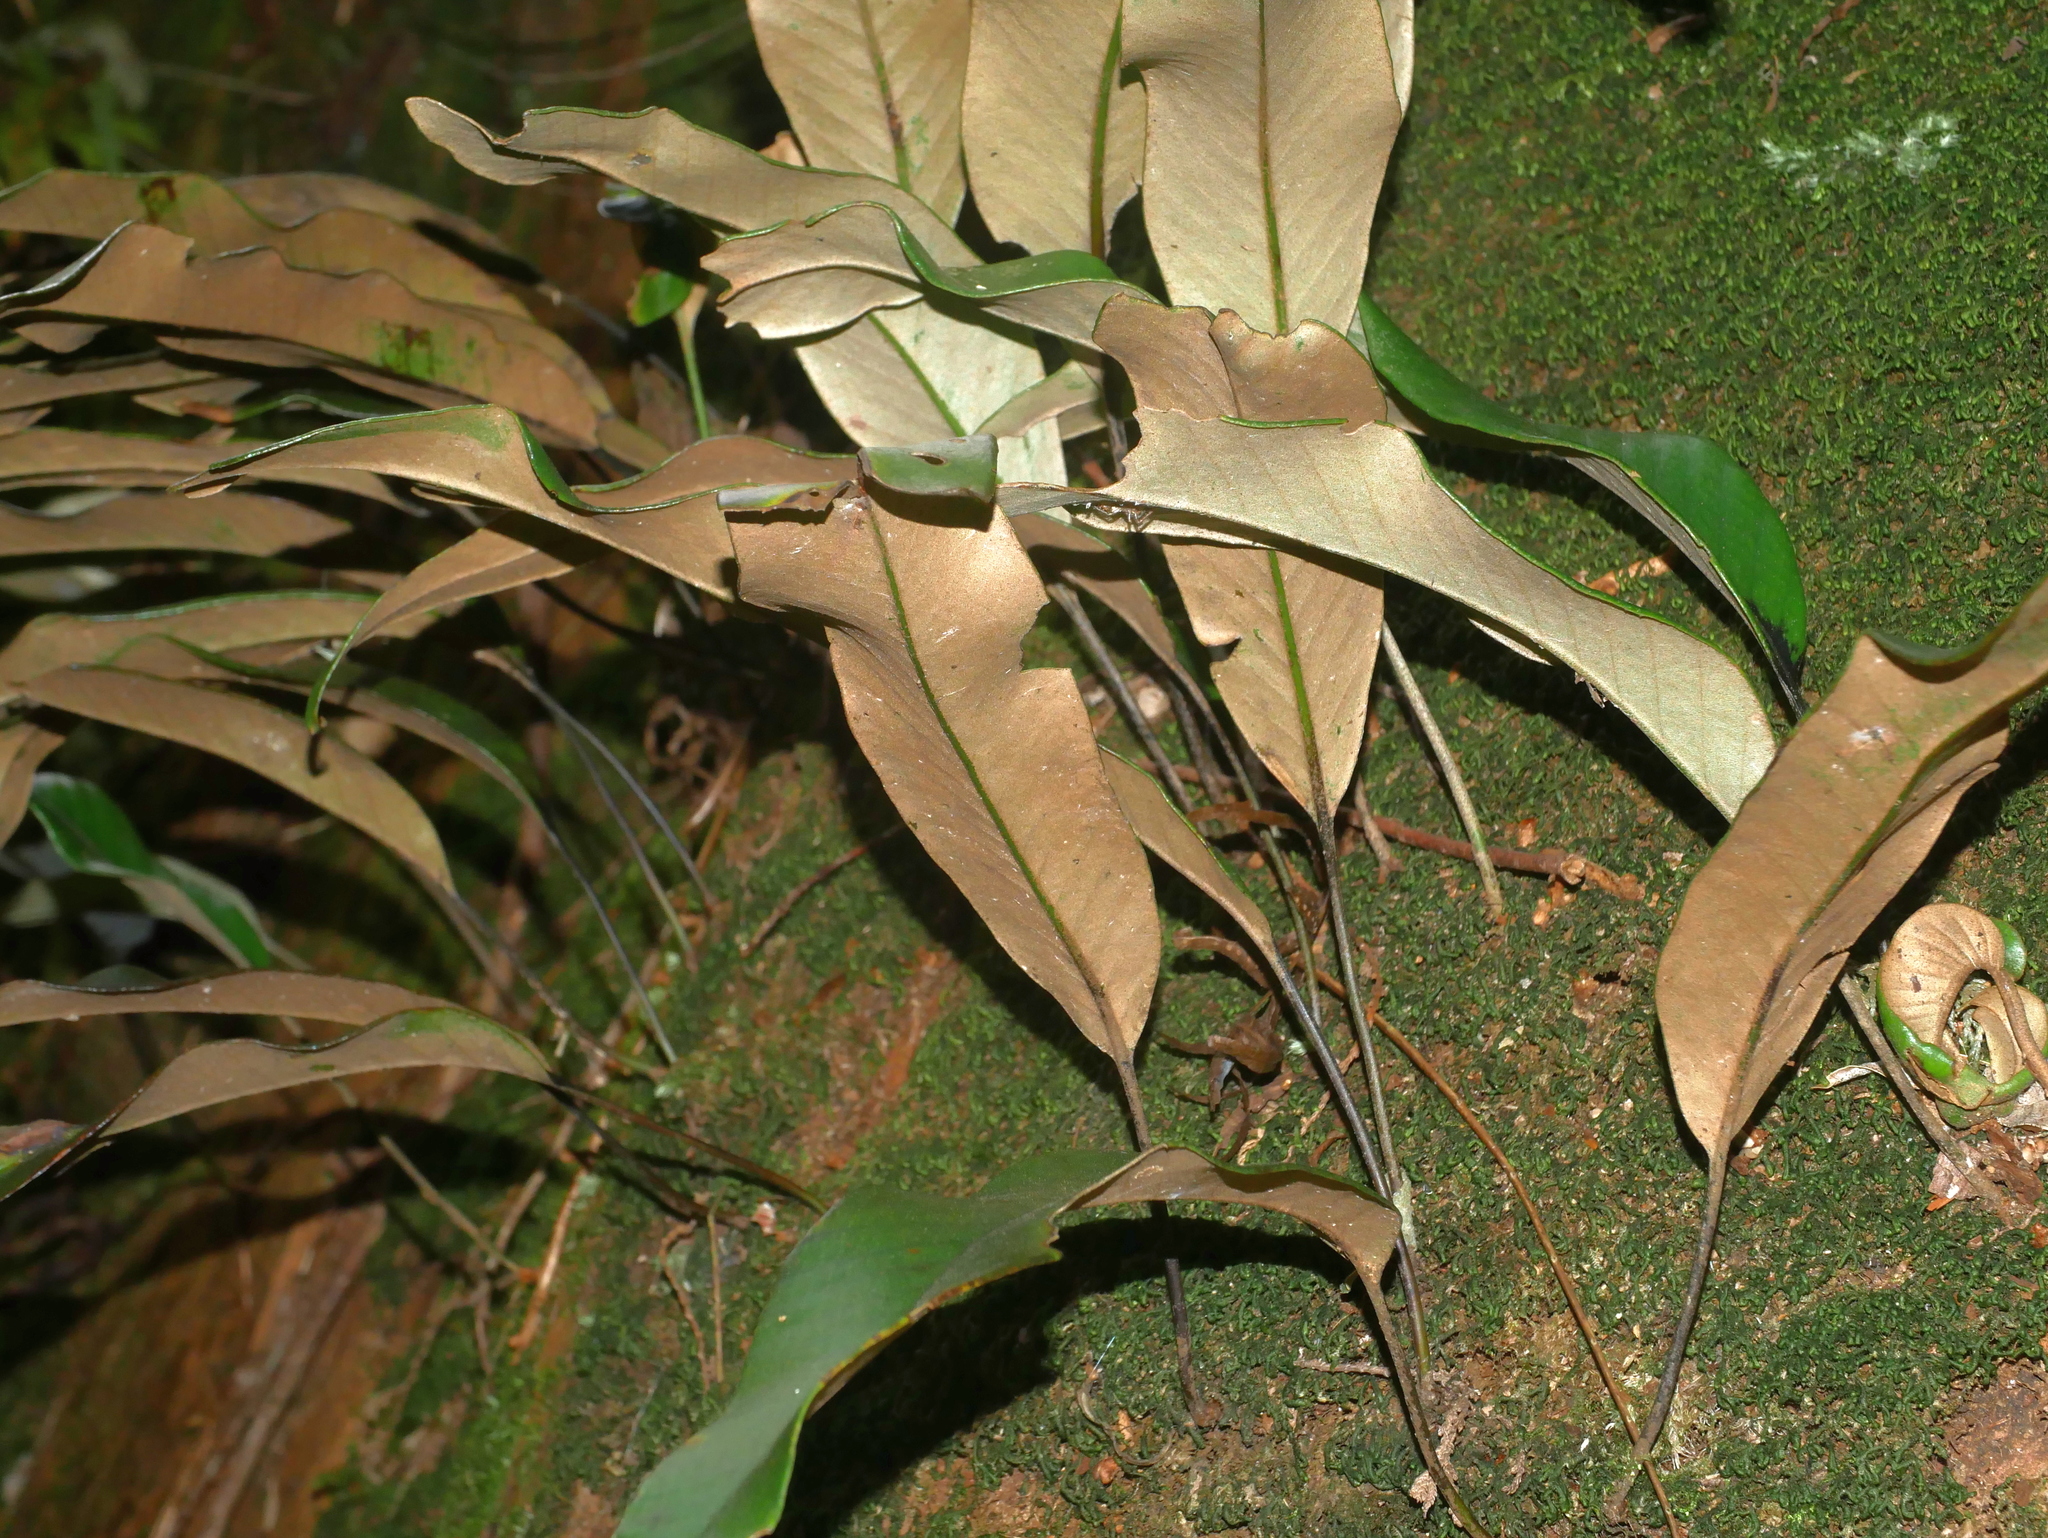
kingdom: Plantae
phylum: Tracheophyta
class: Polypodiopsida
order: Polypodiales
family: Polypodiaceae
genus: Pyrrosia
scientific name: Pyrrosia lingua
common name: Felt fern
